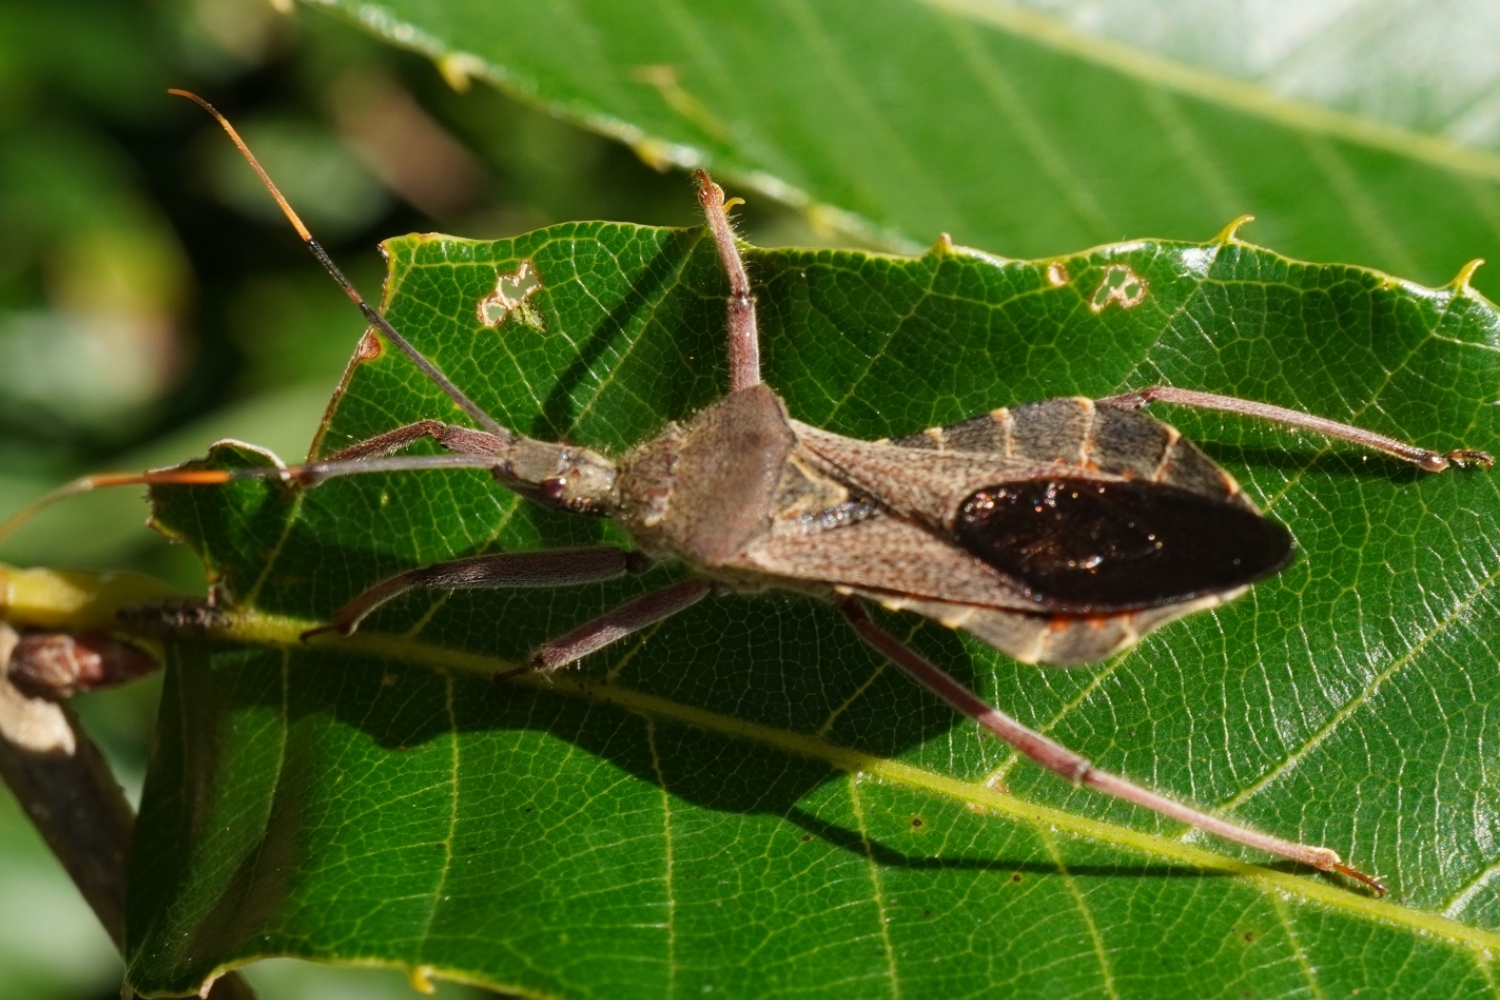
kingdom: Animalia
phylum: Arthropoda
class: Insecta
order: Hemiptera
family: Reduviidae
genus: Isyndus
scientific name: Isyndus obscurus
